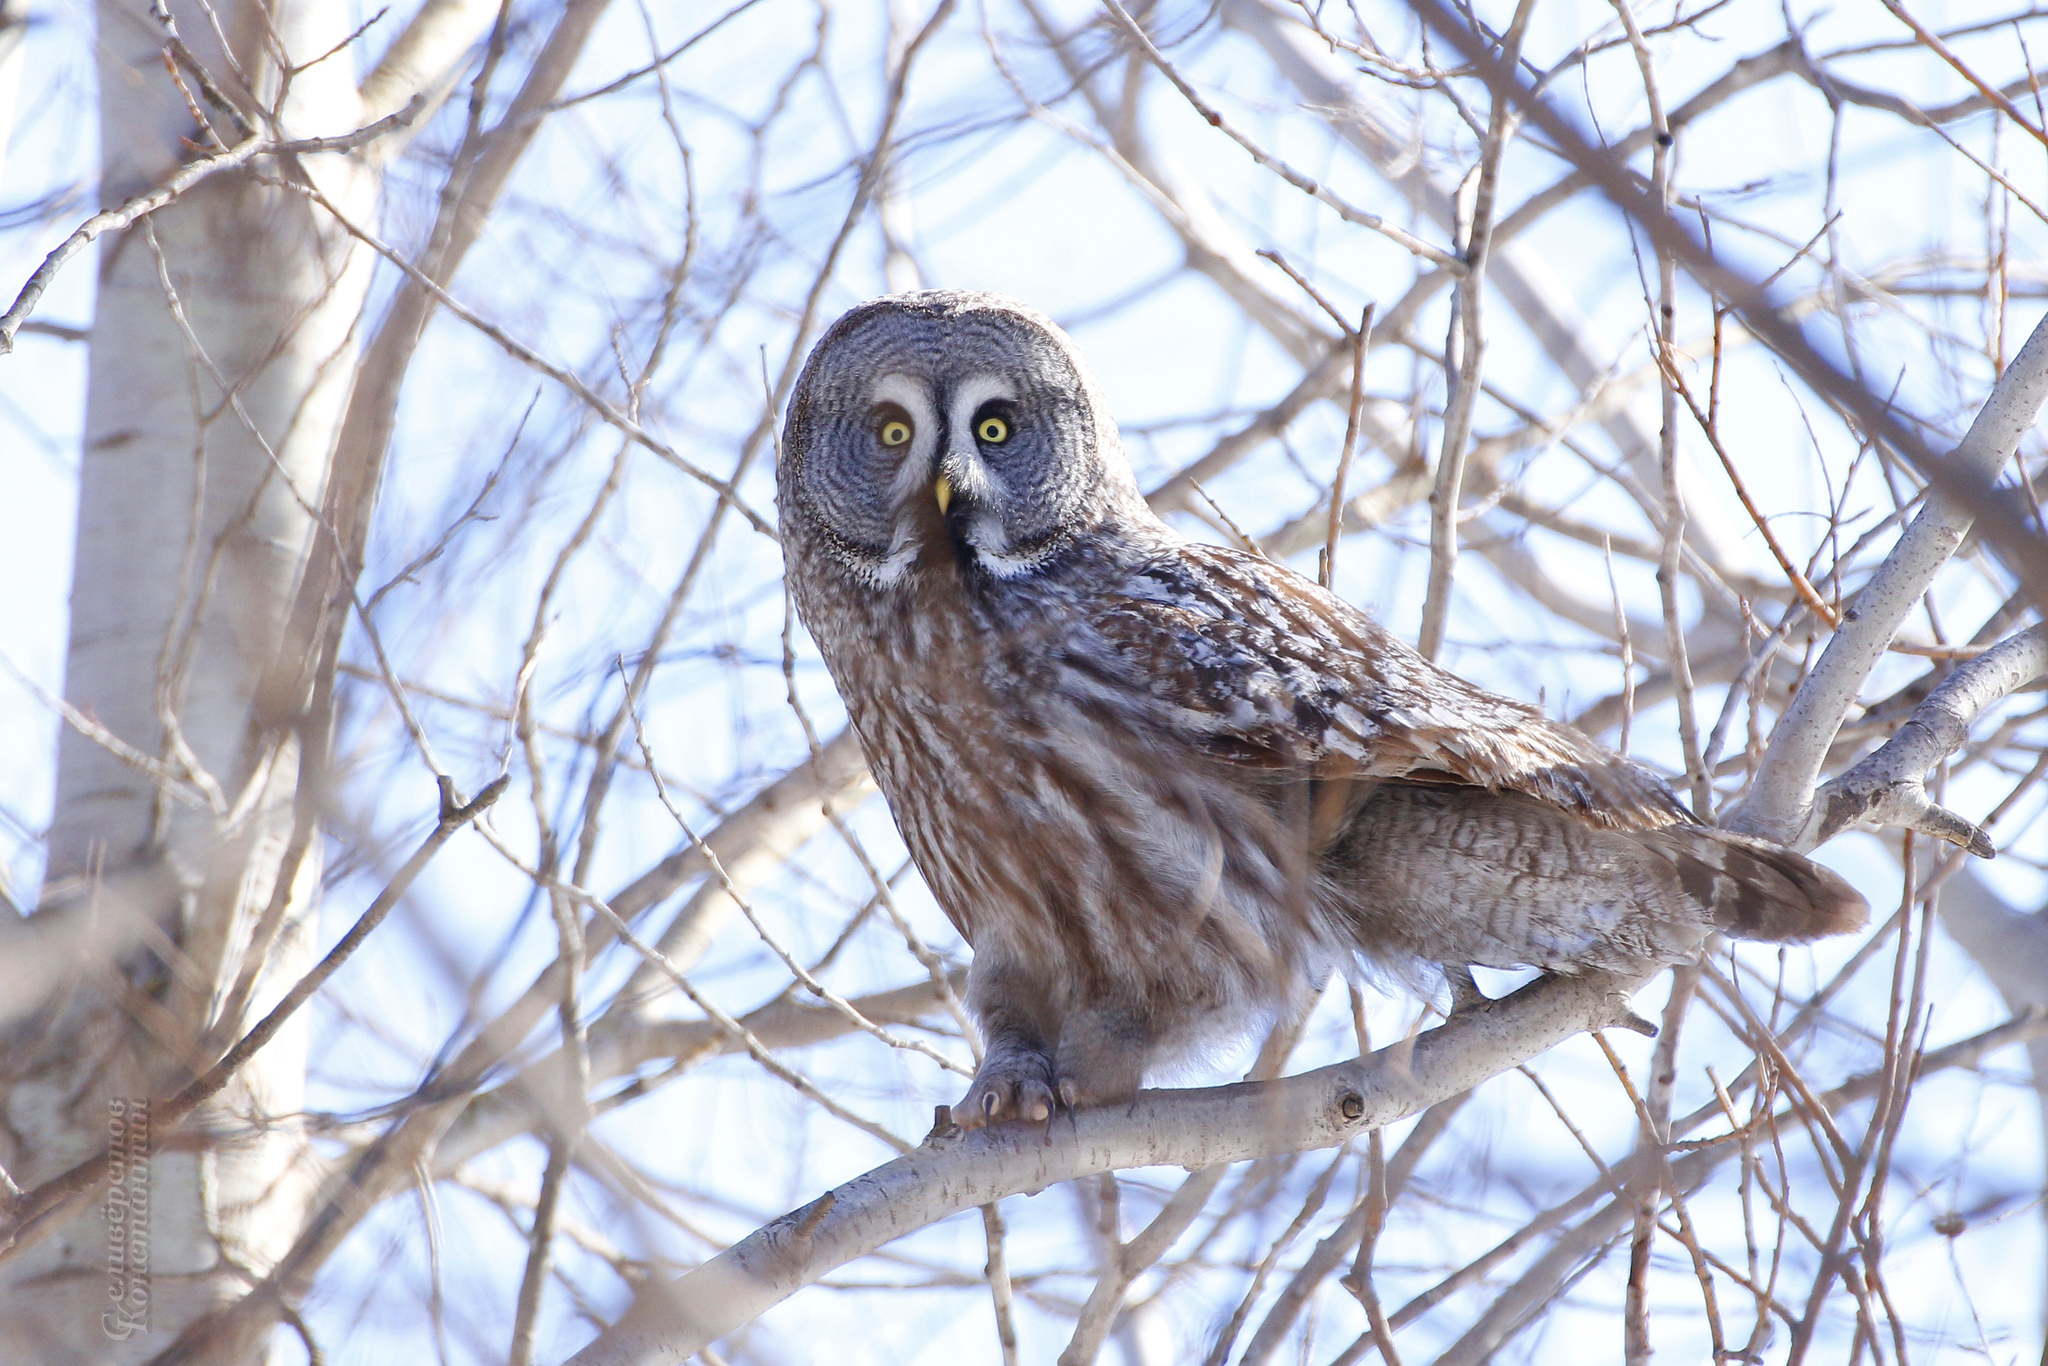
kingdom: Animalia
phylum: Chordata
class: Aves
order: Strigiformes
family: Strigidae
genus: Strix
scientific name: Strix nebulosa
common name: Great grey owl
